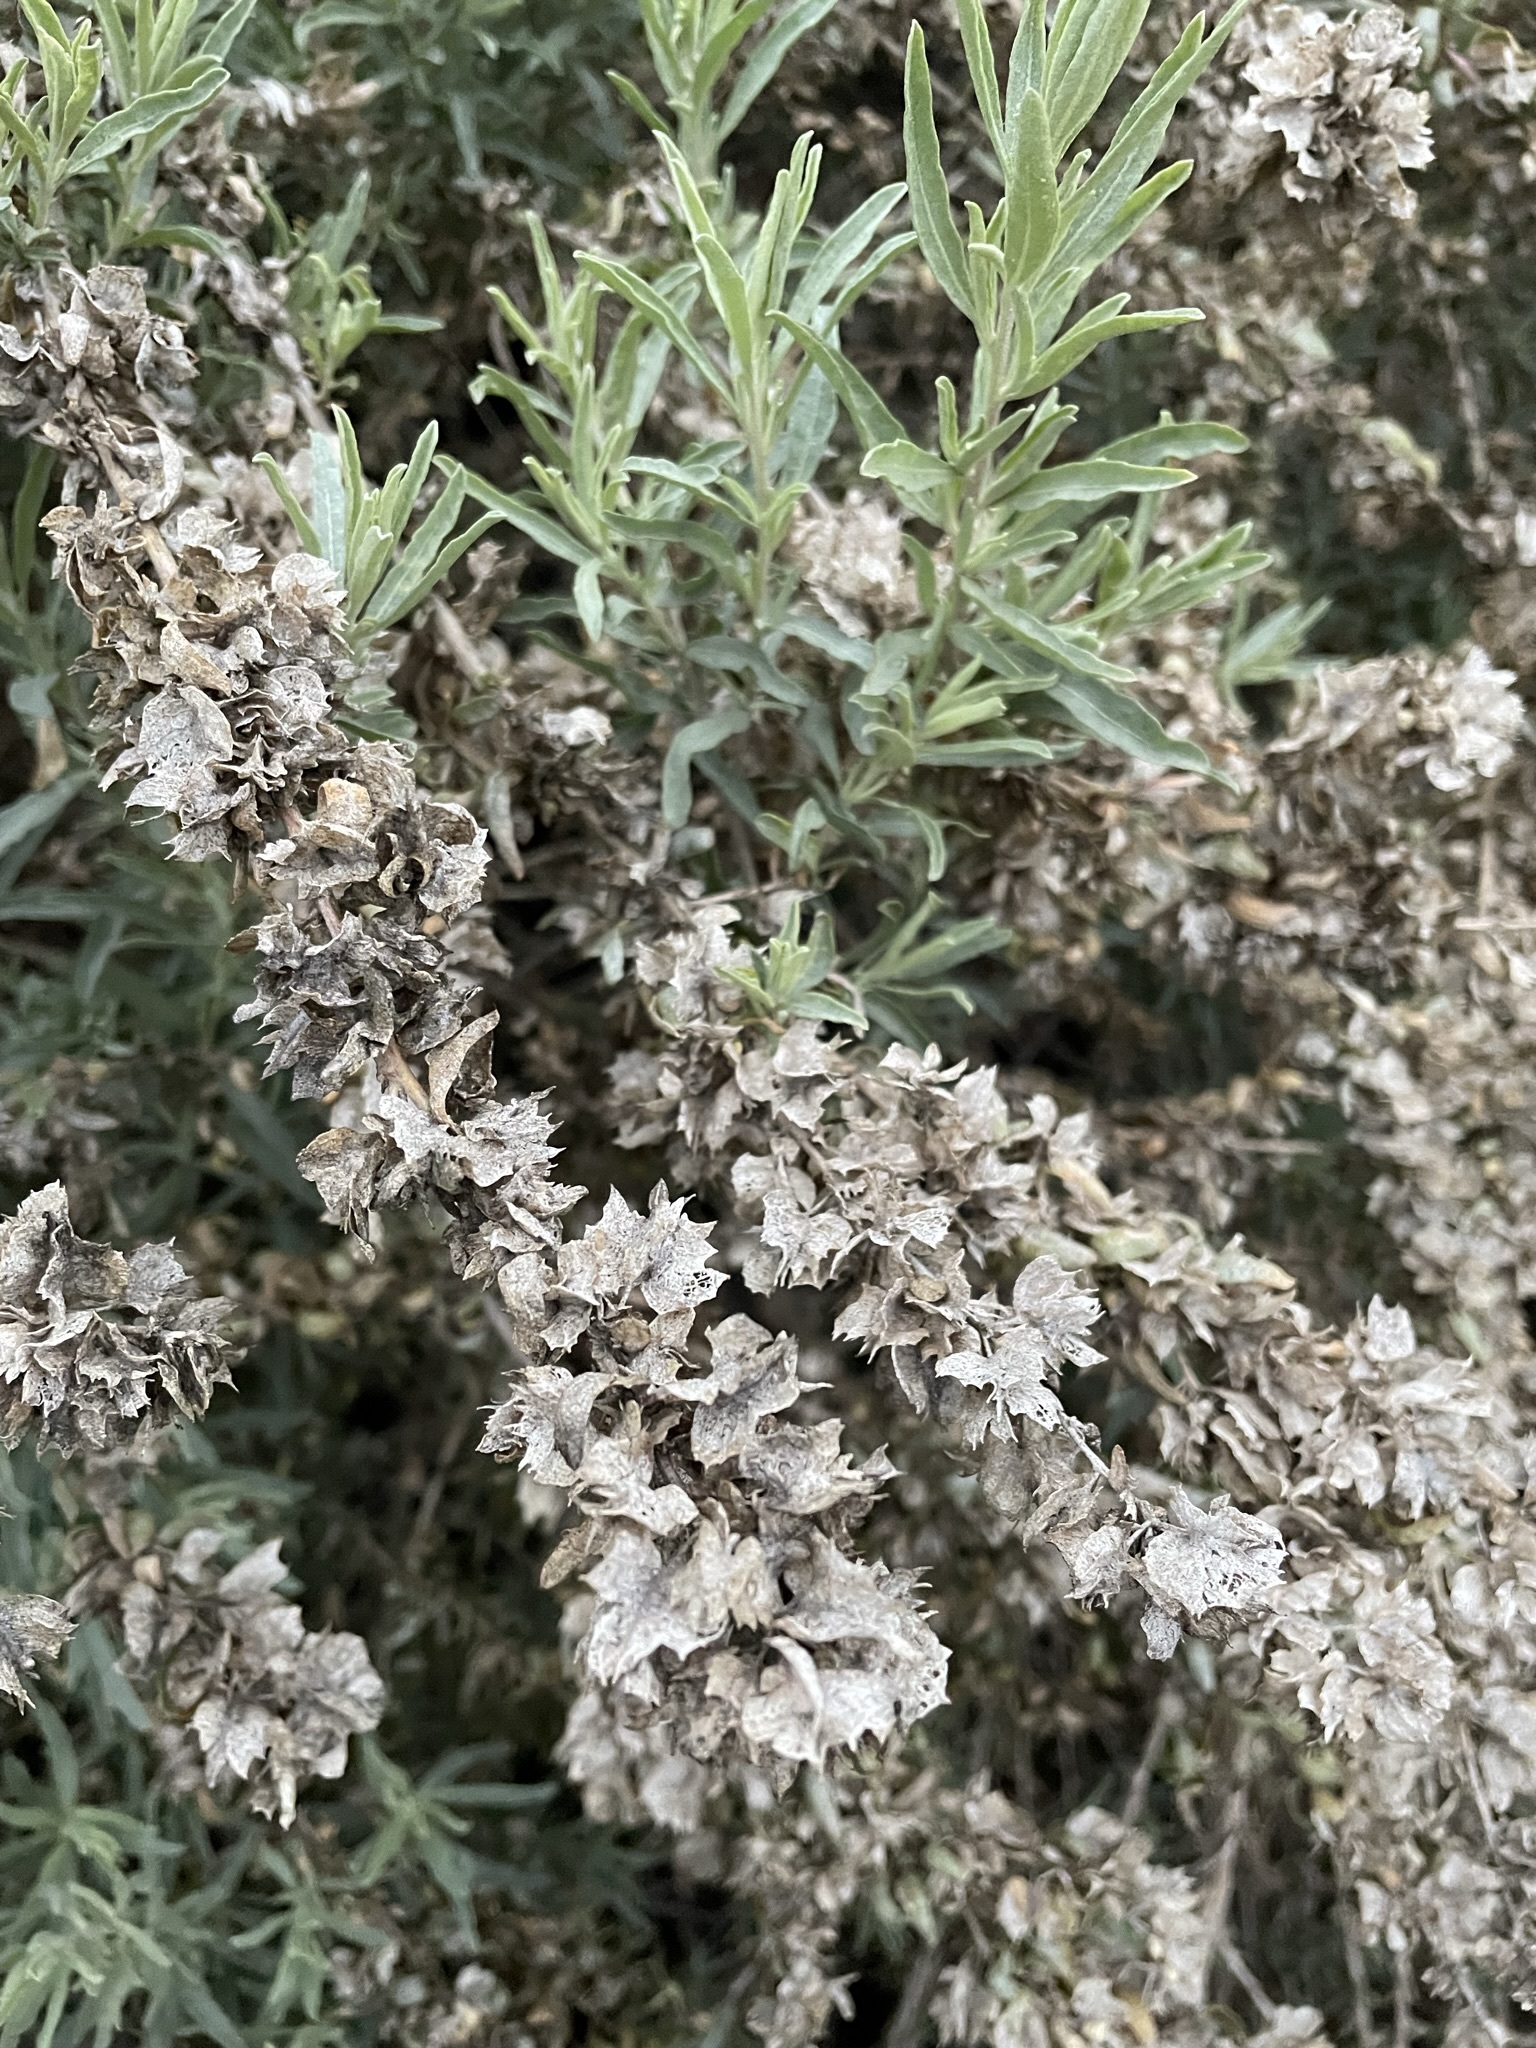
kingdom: Plantae
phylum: Tracheophyta
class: Magnoliopsida
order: Caryophyllales
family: Amaranthaceae
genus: Atriplex
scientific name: Atriplex canescens
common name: Four-wing saltbush
